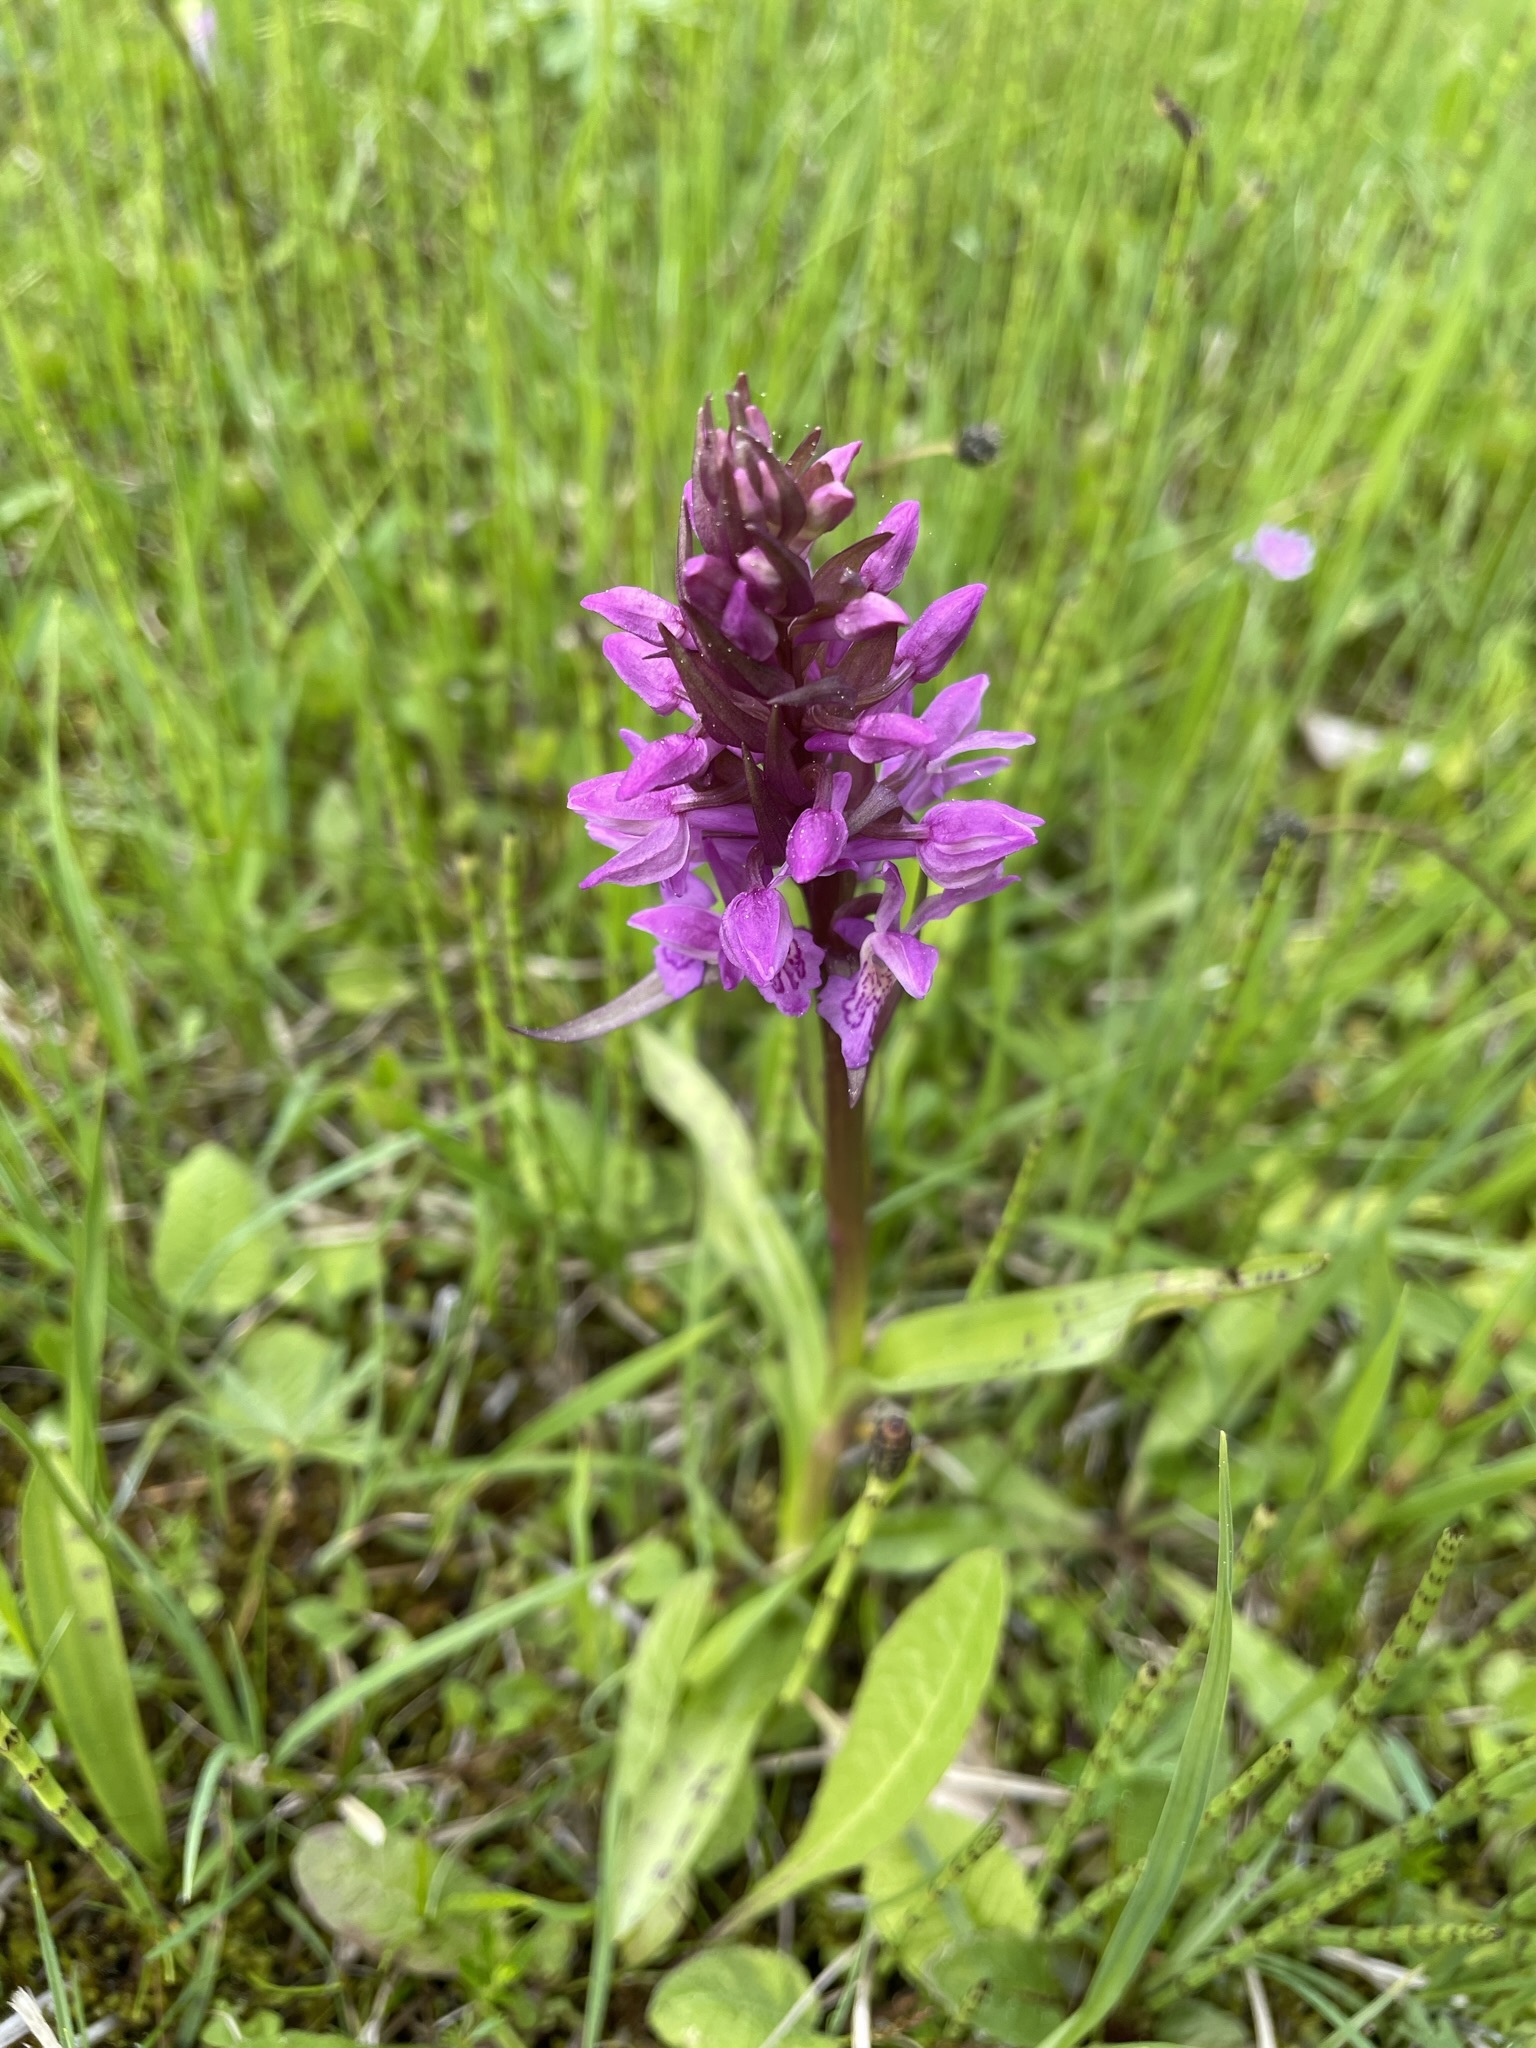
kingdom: Plantae
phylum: Tracheophyta
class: Liliopsida
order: Asparagales
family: Orchidaceae
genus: Dactylorhiza
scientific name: Dactylorhiza majalis
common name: Marsh orchid
